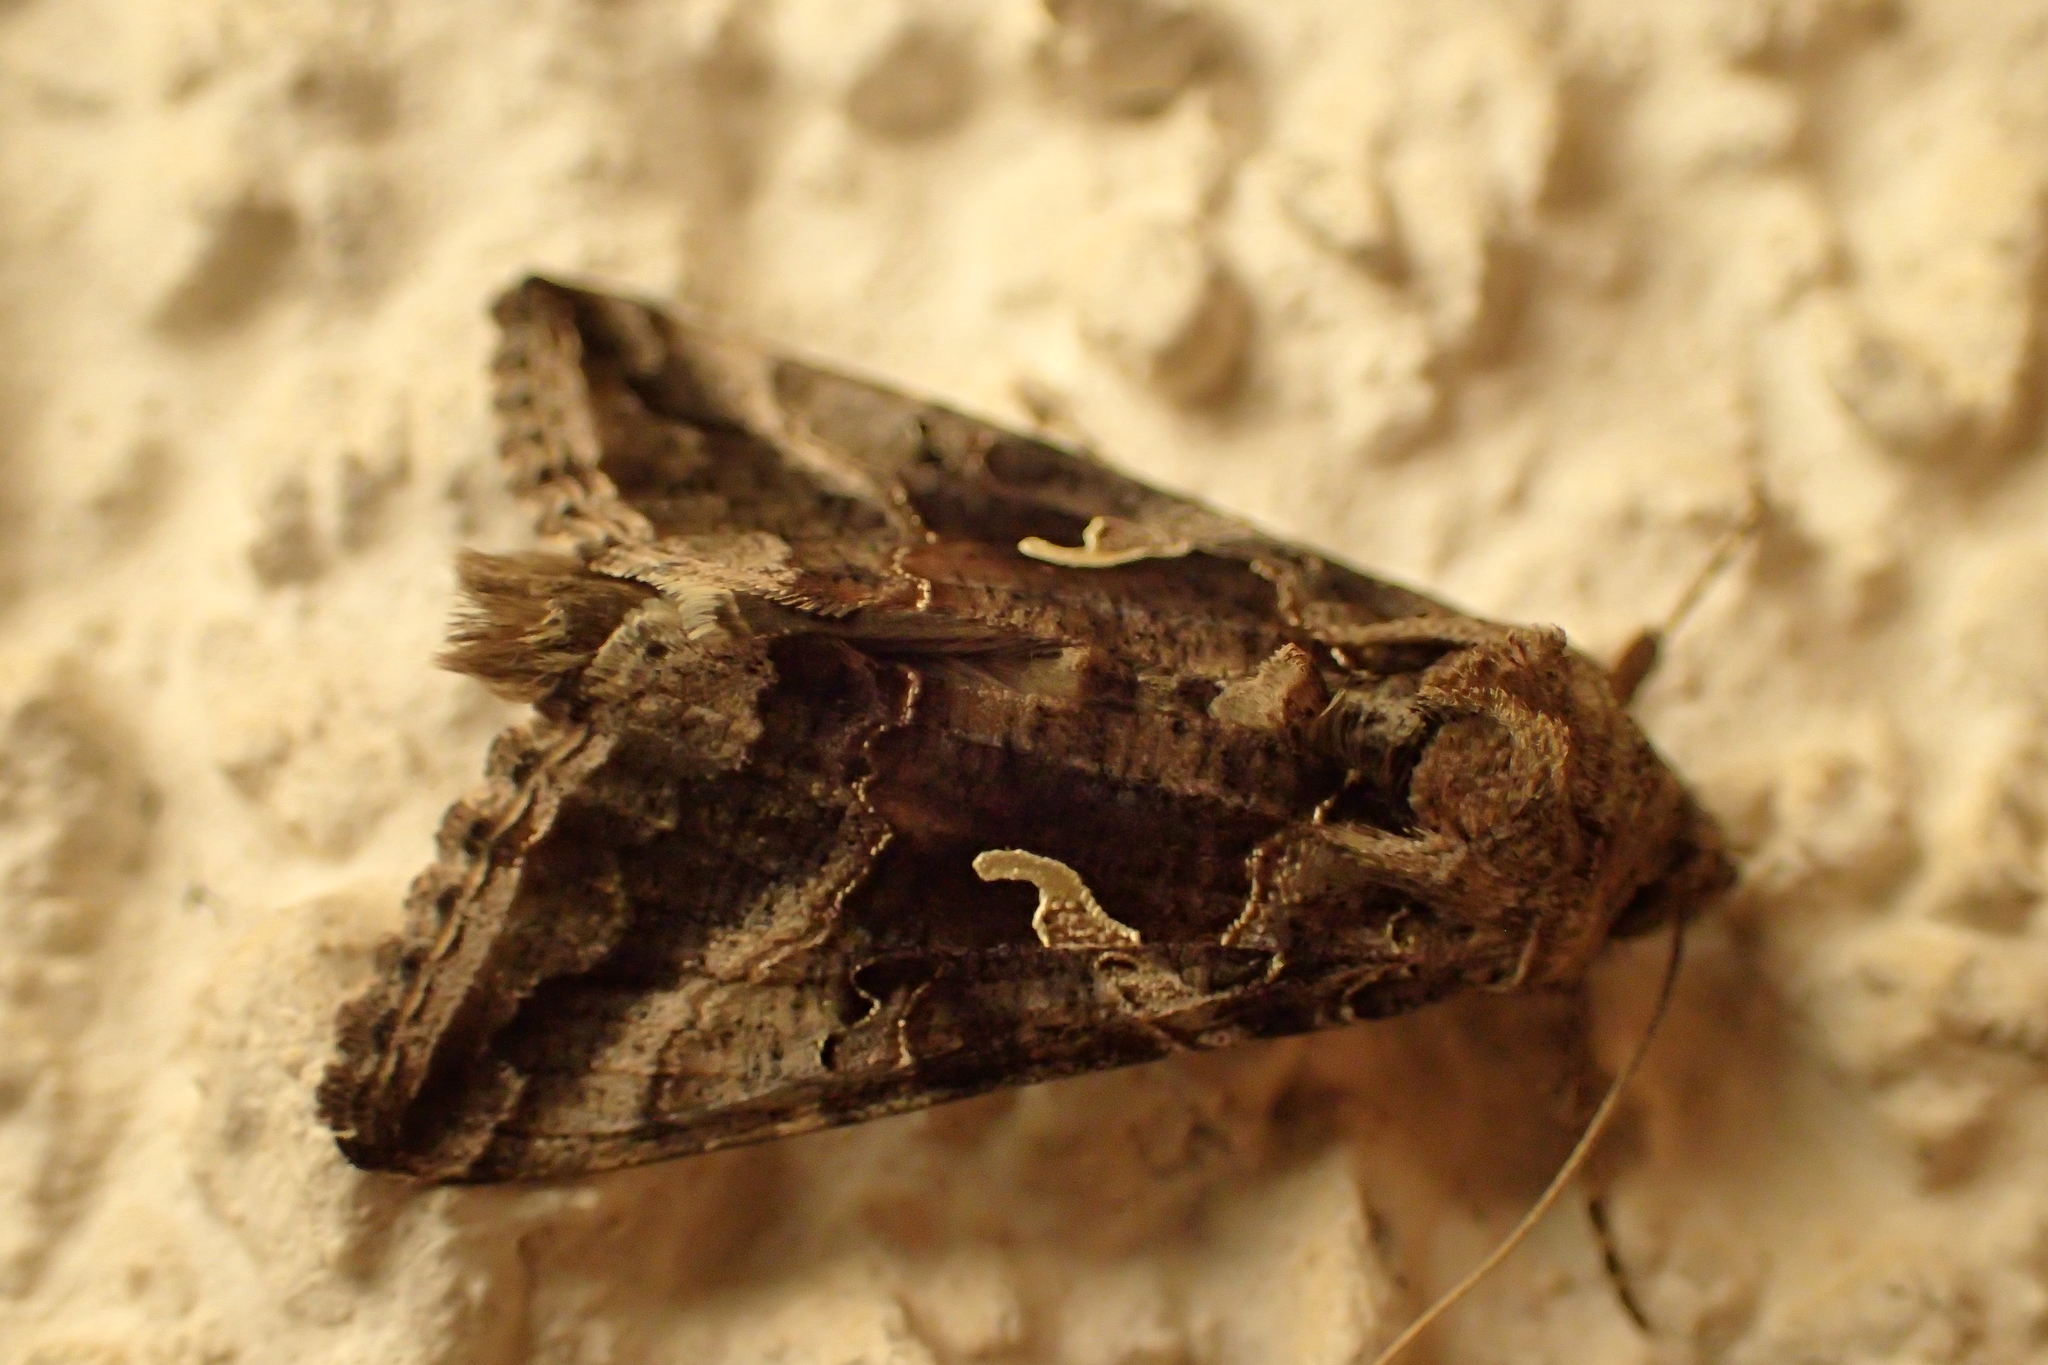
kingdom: Animalia
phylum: Arthropoda
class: Insecta
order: Lepidoptera
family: Noctuidae
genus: Autographa
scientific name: Autographa gamma
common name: Silver y
